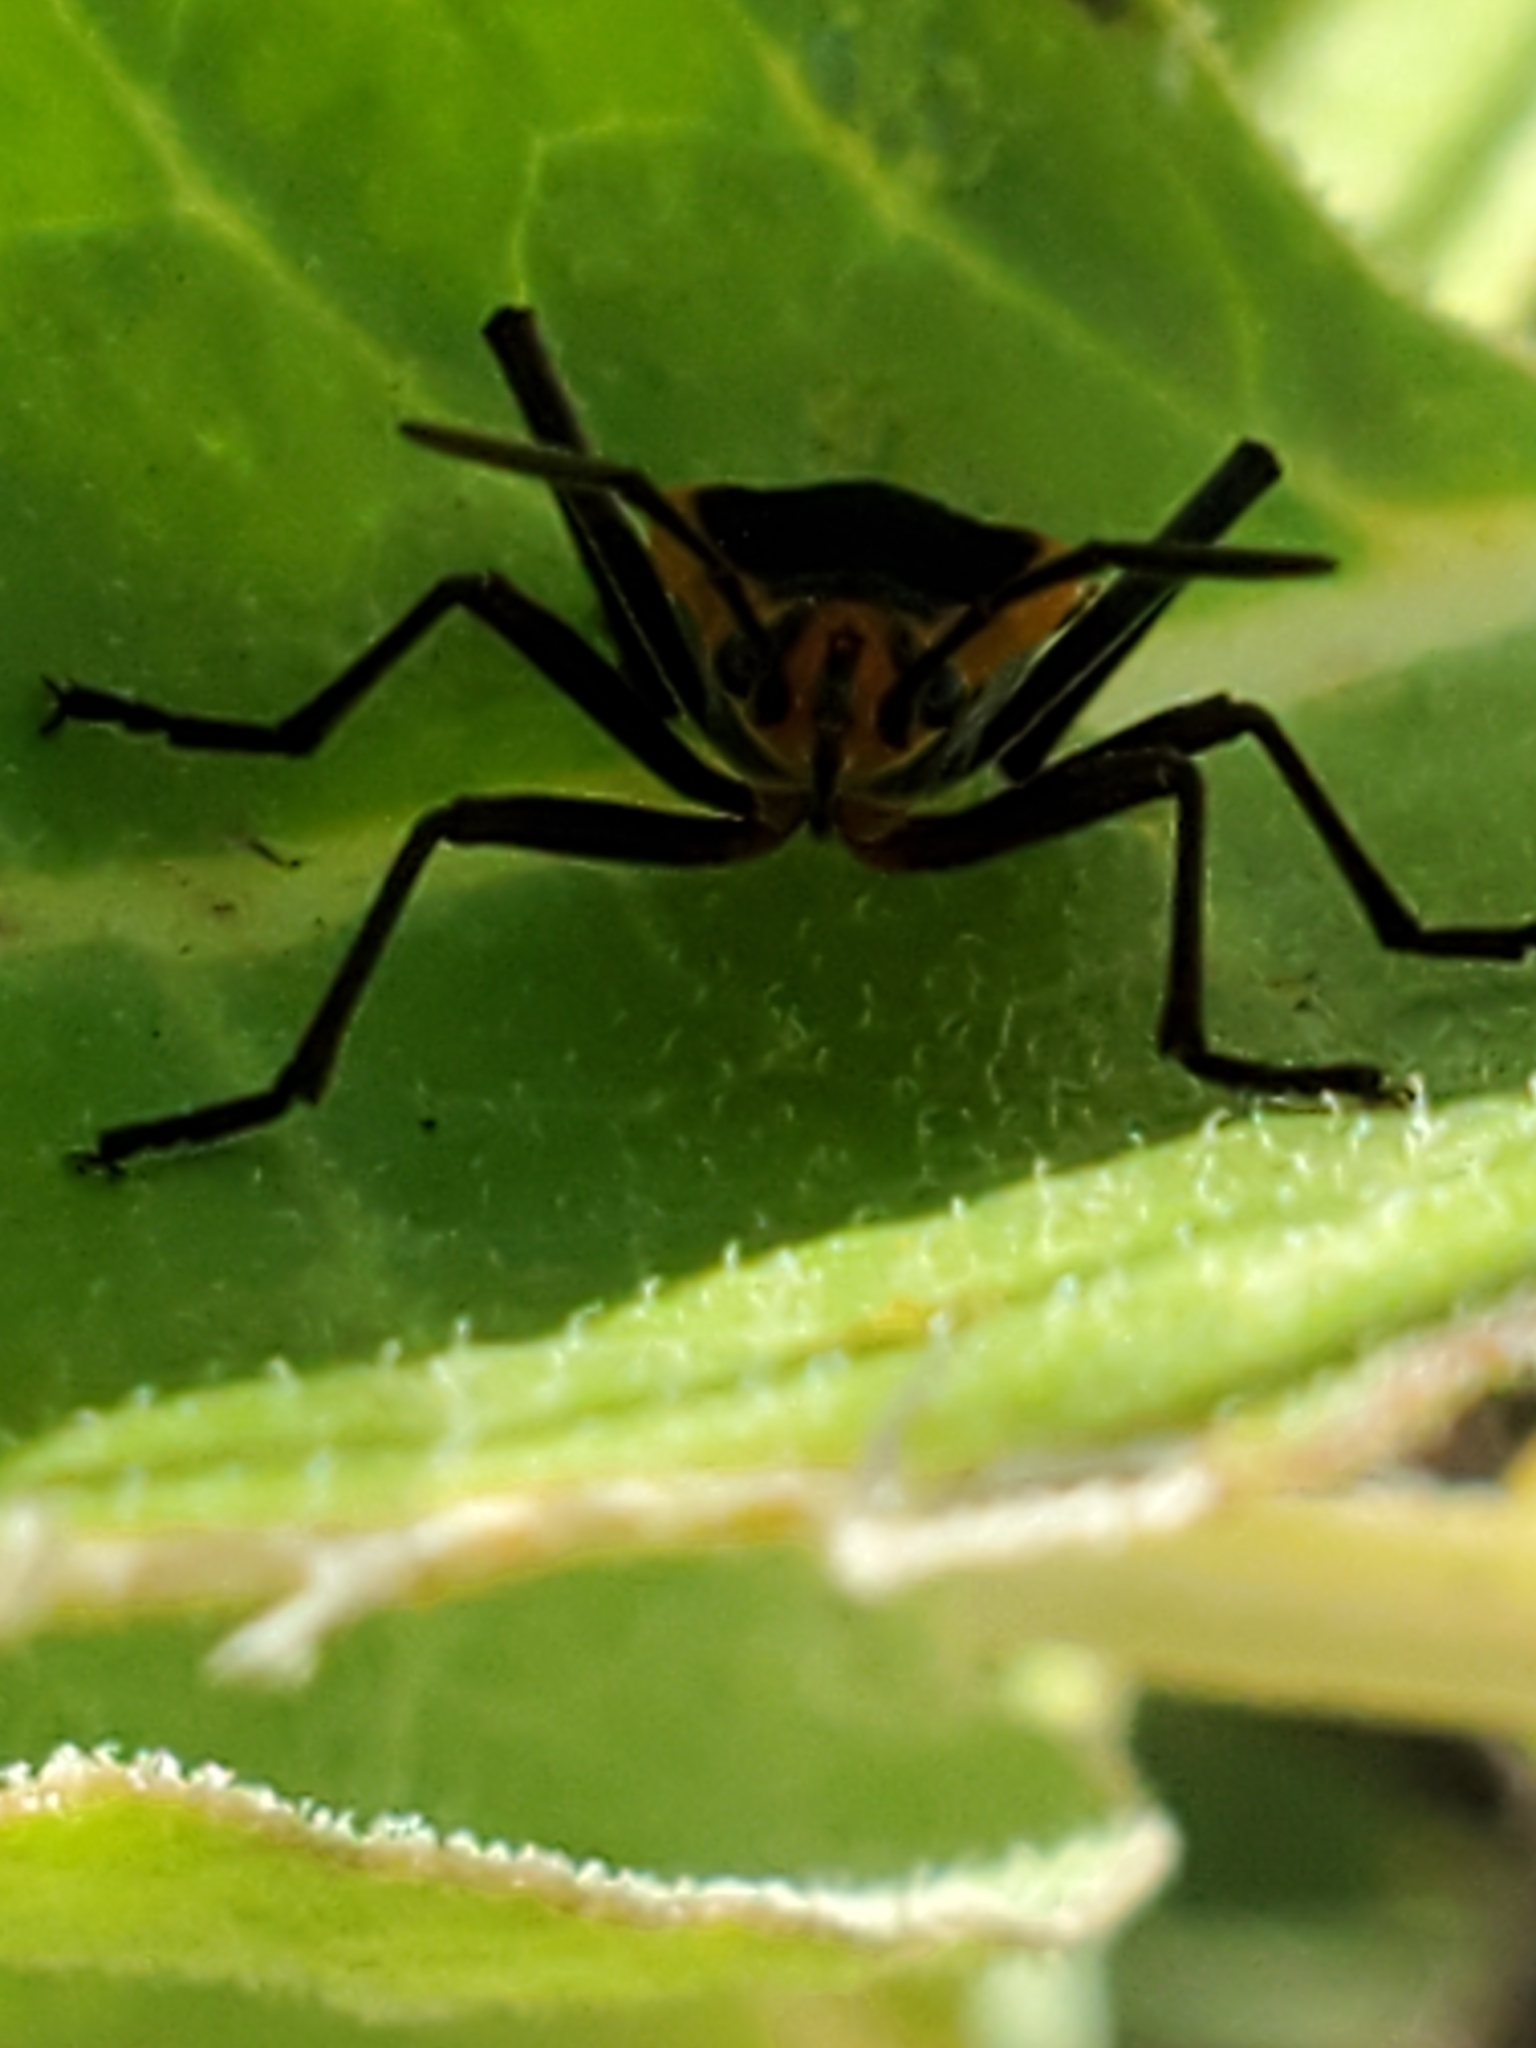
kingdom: Animalia
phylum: Arthropoda
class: Insecta
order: Hemiptera
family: Lygaeidae
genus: Oncopeltus
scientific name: Oncopeltus fasciatus
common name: Large milkweed bug
